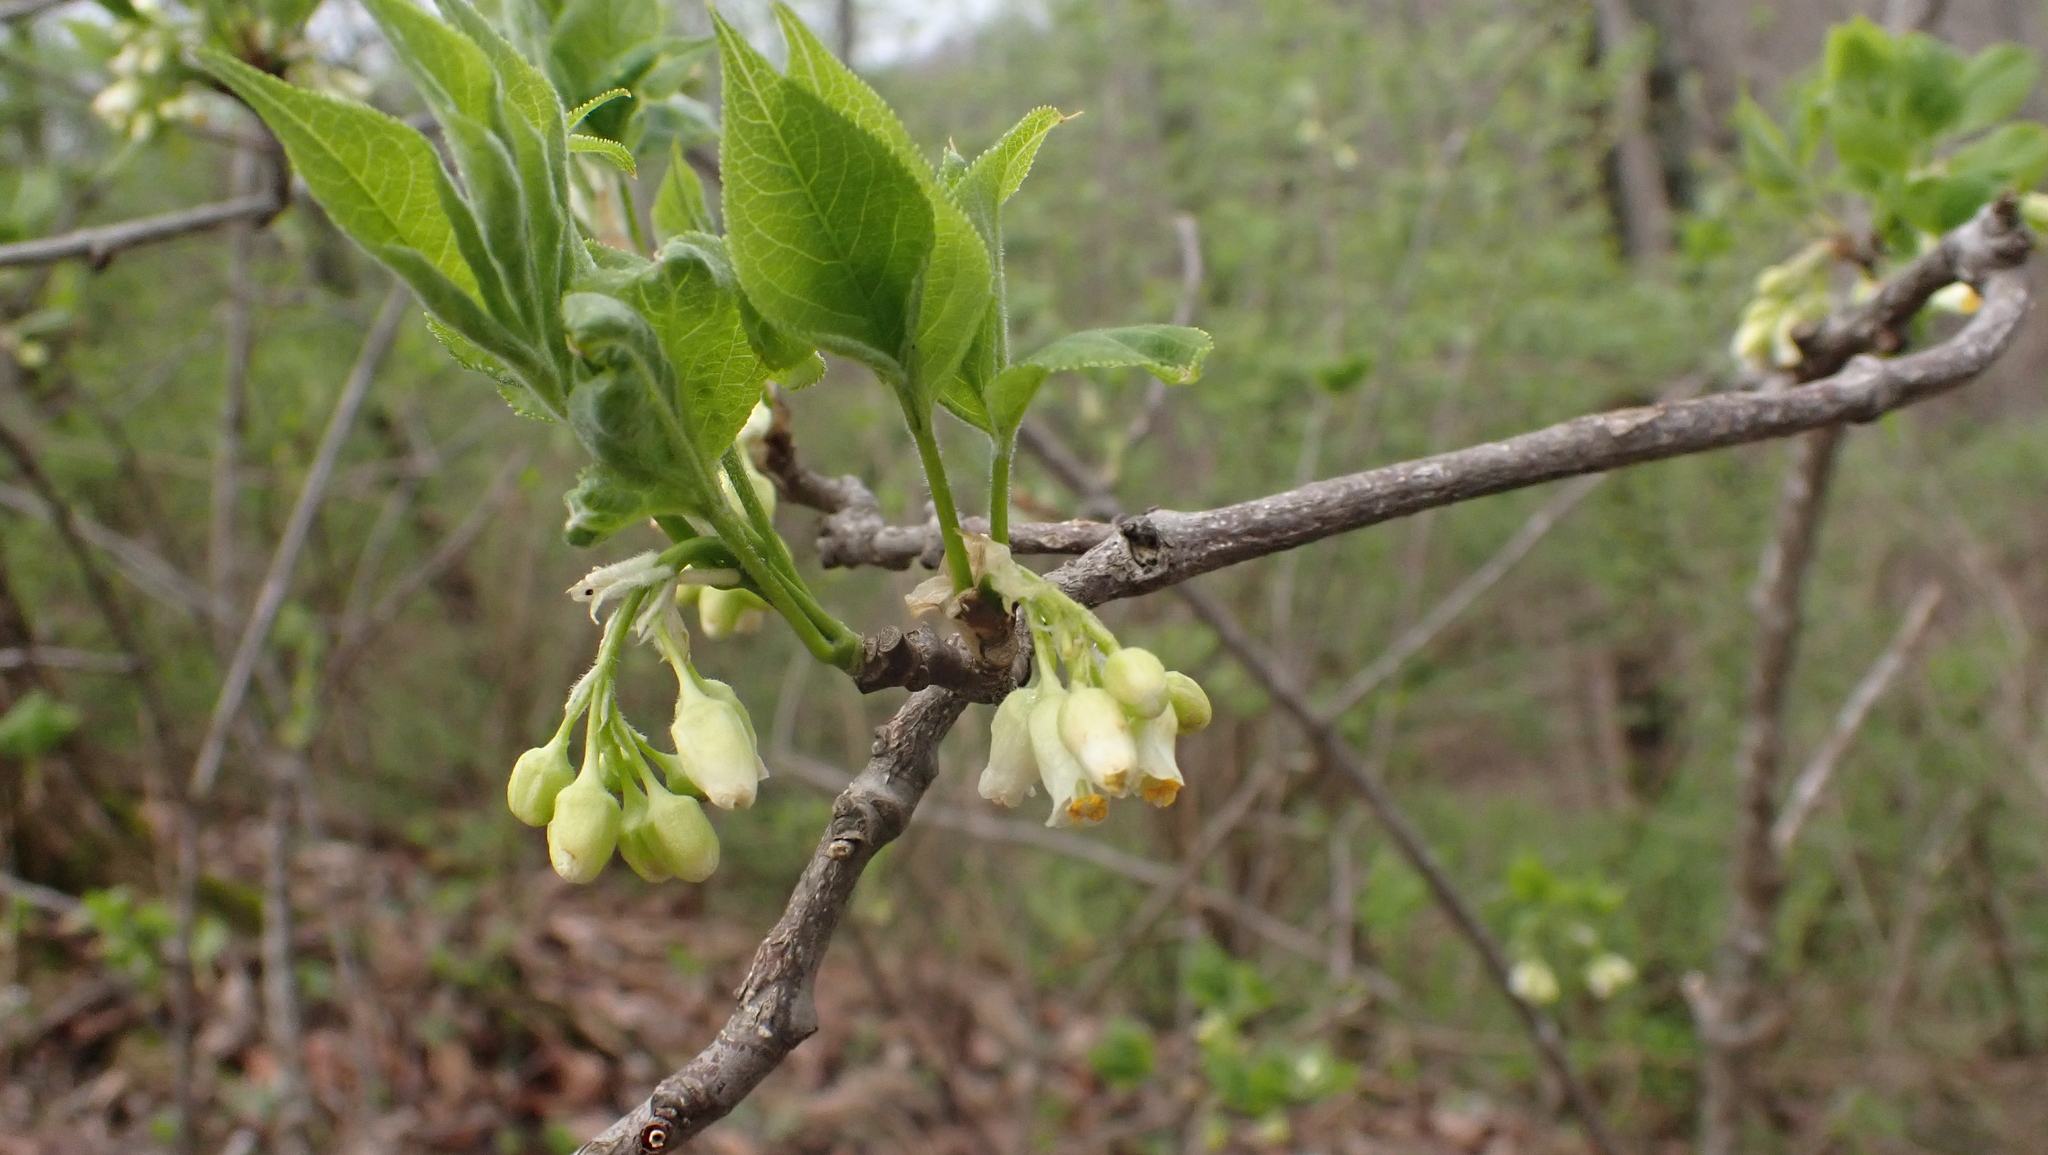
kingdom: Plantae
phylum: Tracheophyta
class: Magnoliopsida
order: Crossosomatales
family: Staphyleaceae
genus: Staphylea
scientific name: Staphylea trifolia
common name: American bladdernut
